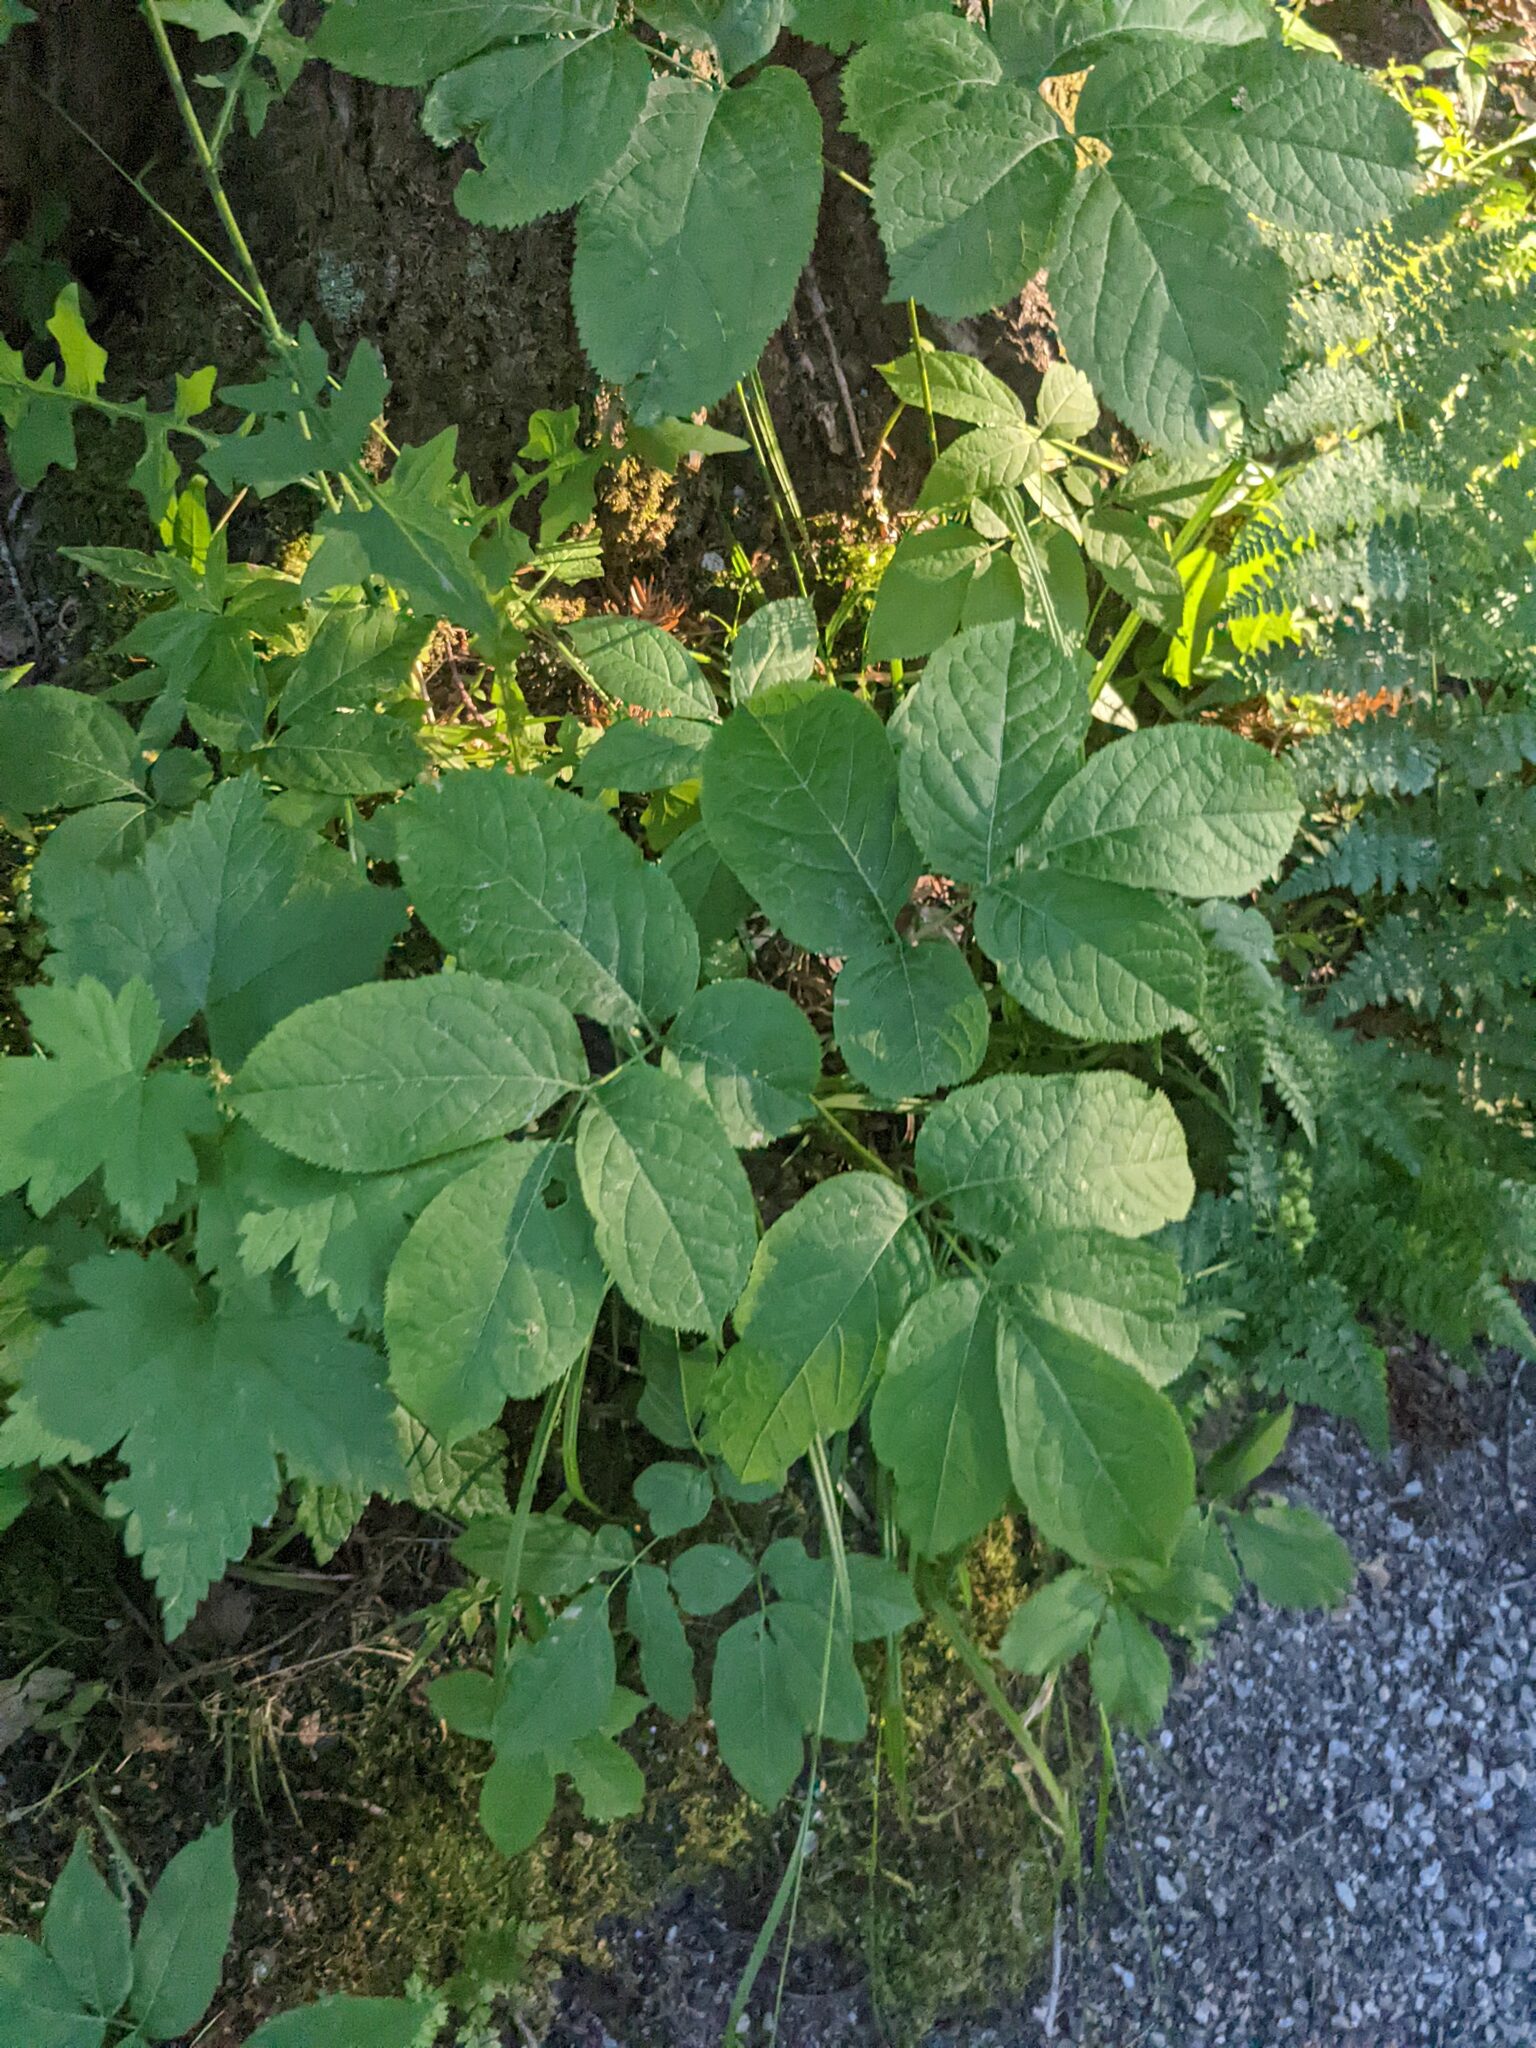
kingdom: Plantae
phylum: Tracheophyta
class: Magnoliopsida
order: Apiales
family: Araliaceae
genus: Aralia
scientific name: Aralia nudicaulis
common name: Wild sarsaparilla
